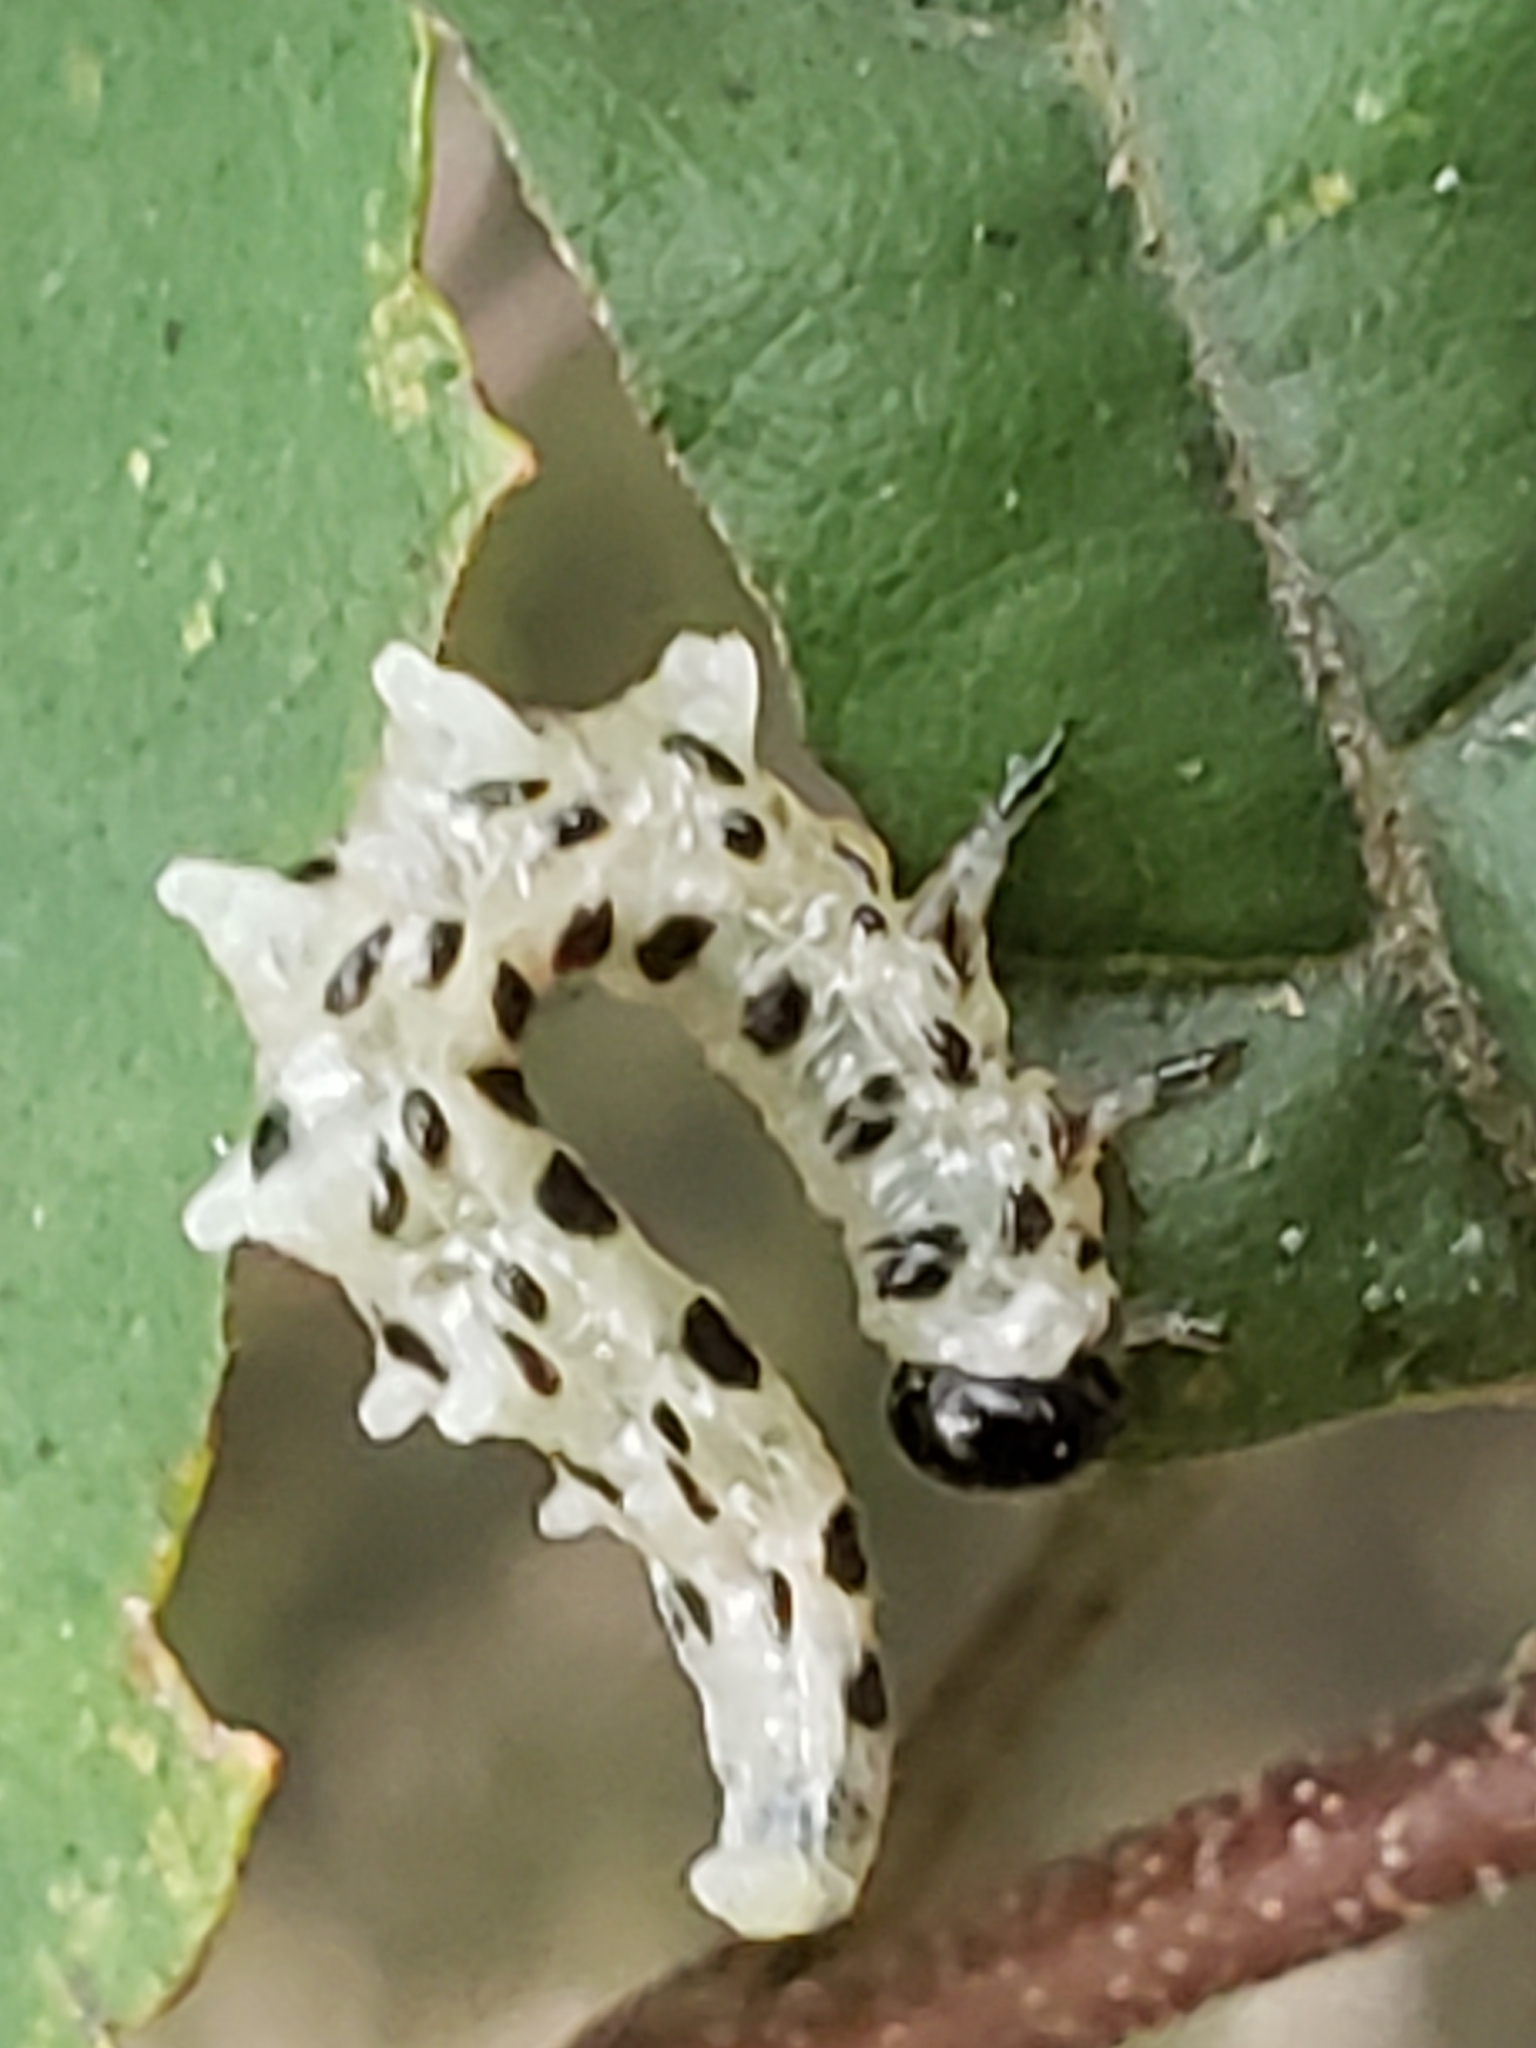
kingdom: Animalia
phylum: Arthropoda
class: Insecta
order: Hymenoptera
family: Tenthredinidae
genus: Nematus
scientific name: Nematus
